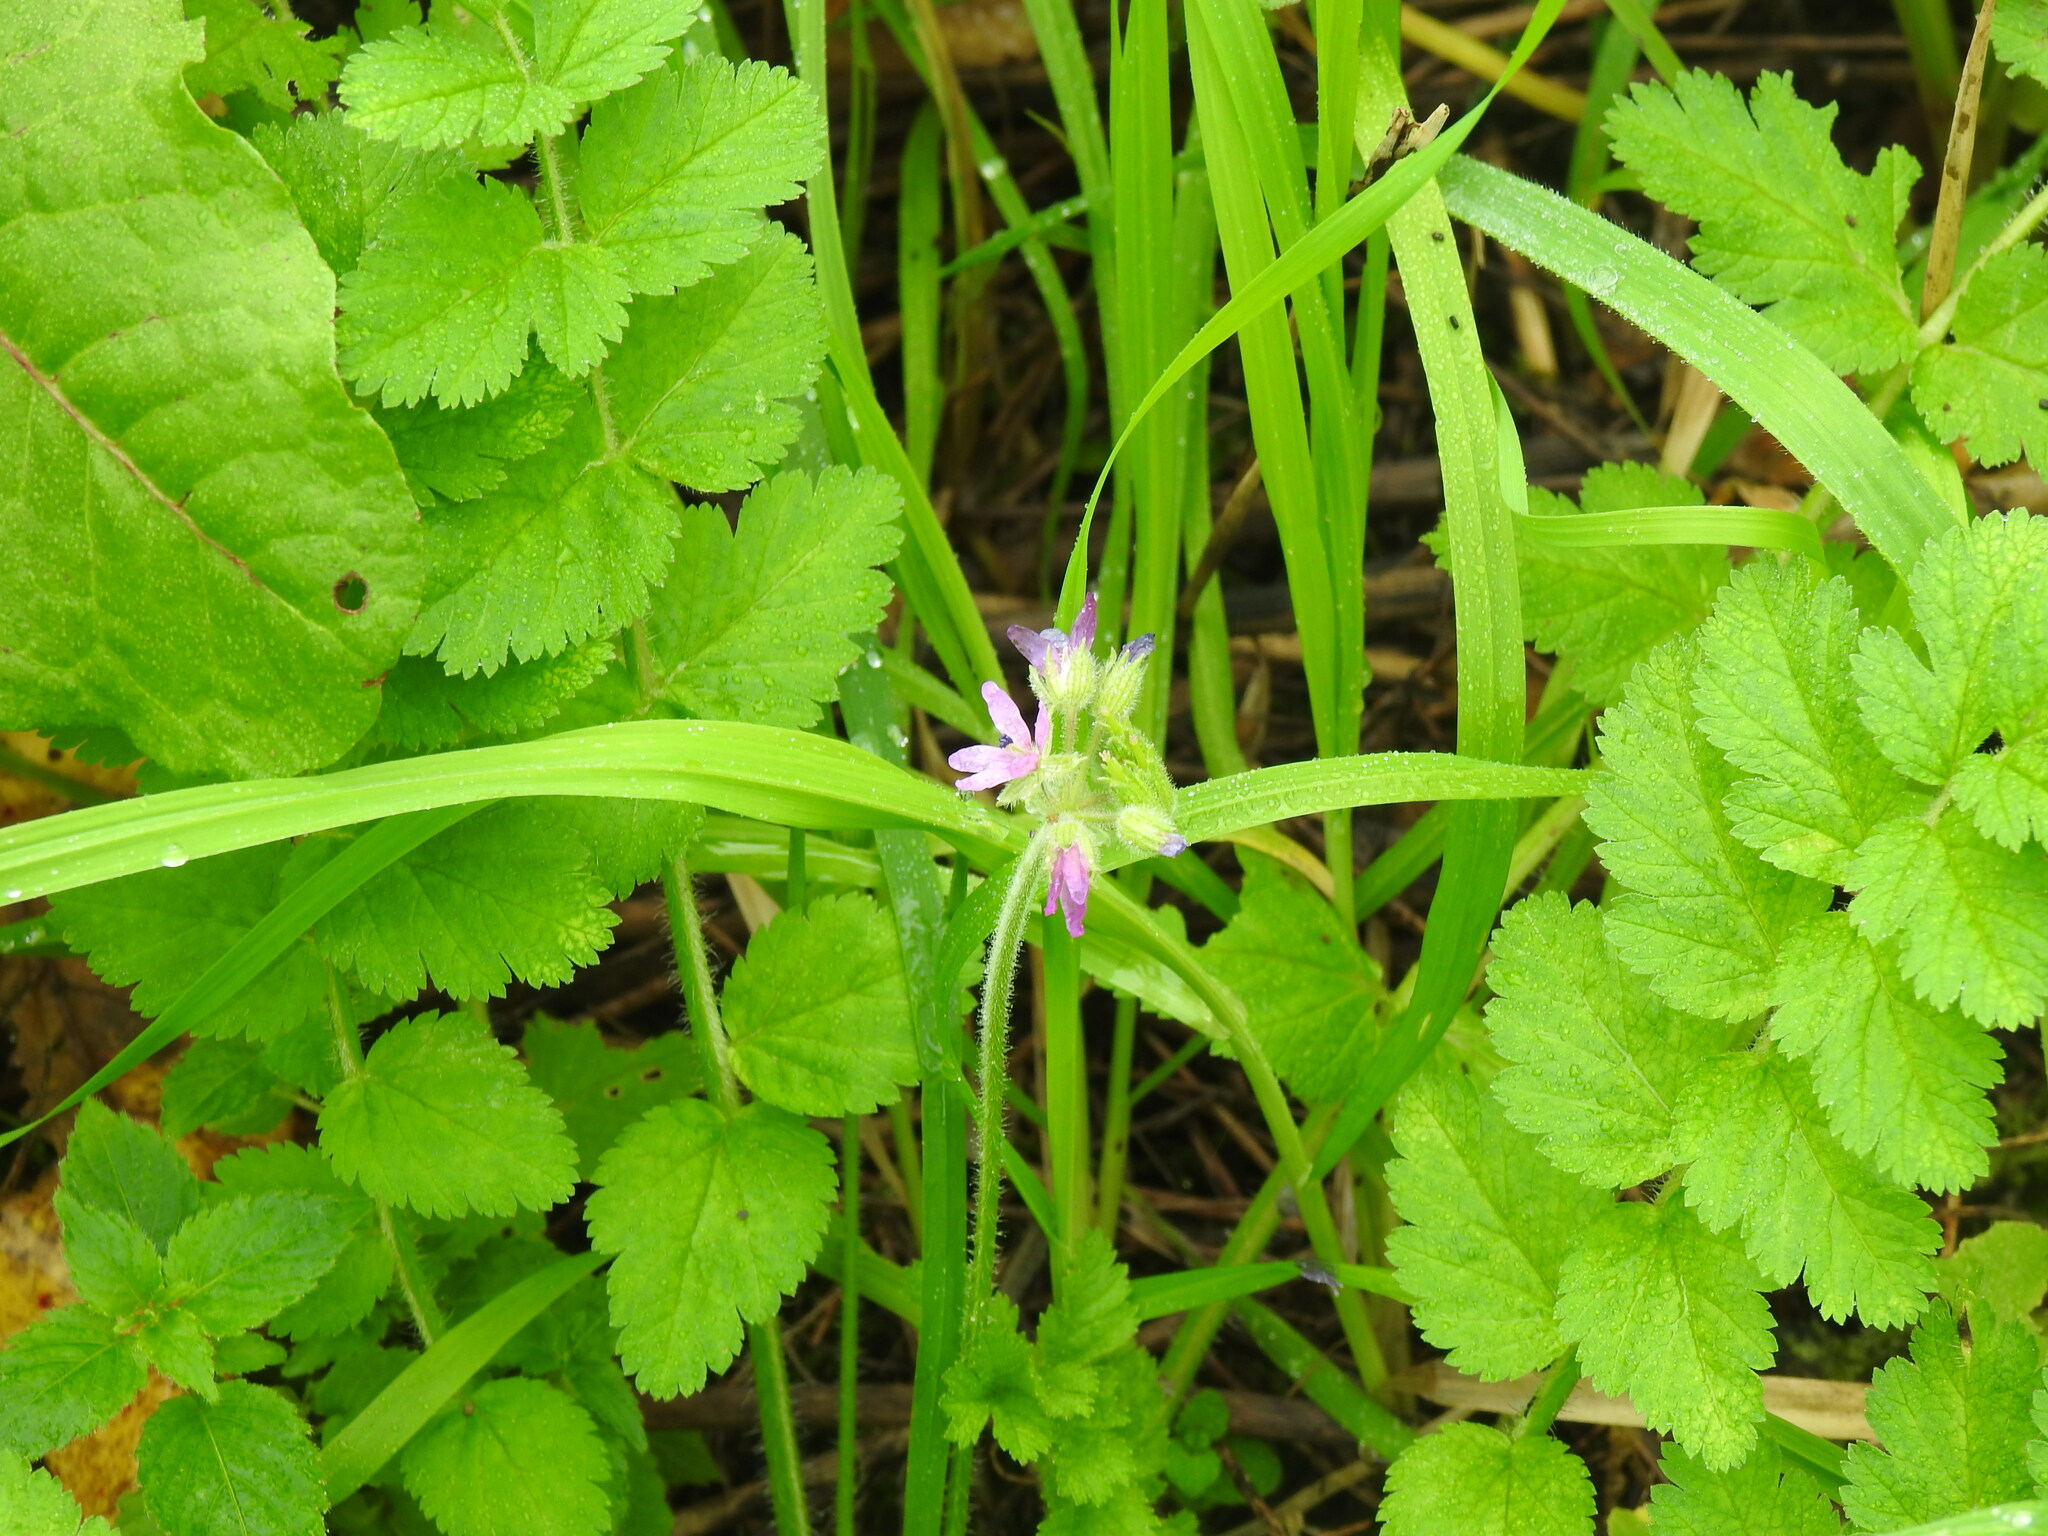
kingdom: Plantae
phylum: Tracheophyta
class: Magnoliopsida
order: Geraniales
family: Geraniaceae
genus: Erodium
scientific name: Erodium moschatum
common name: Musk stork's-bill
